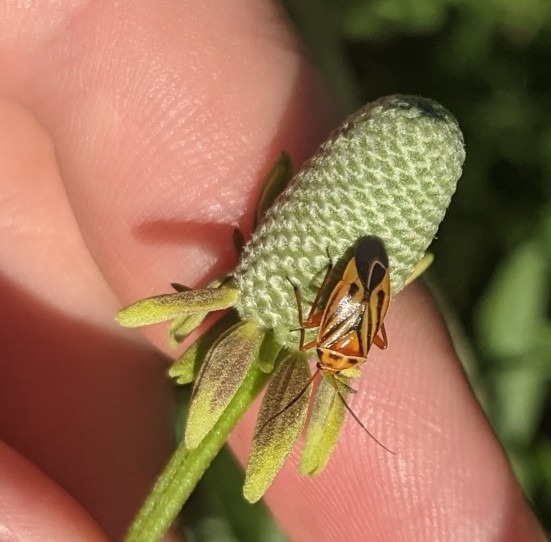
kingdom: Animalia
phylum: Arthropoda
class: Insecta
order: Hemiptera
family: Miridae
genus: Calocoris
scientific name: Calocoris barberi
